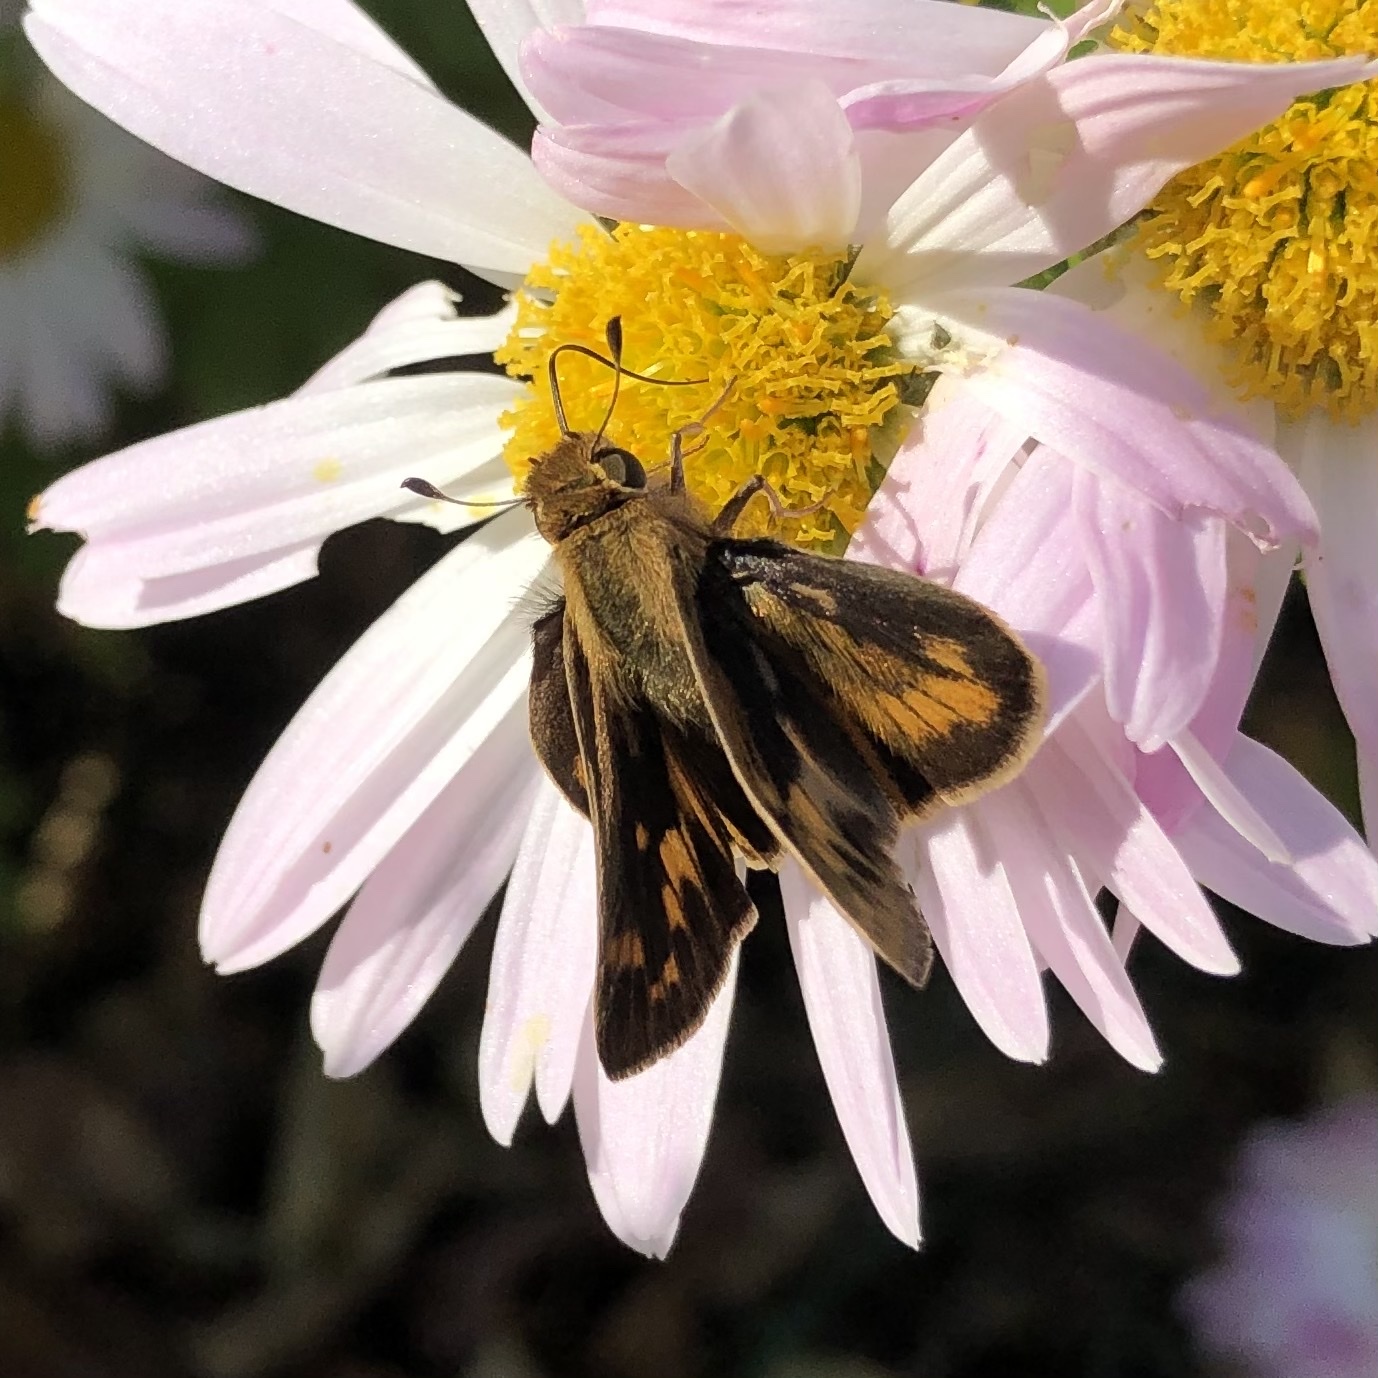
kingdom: Animalia
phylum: Arthropoda
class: Insecta
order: Lepidoptera
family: Hesperiidae
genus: Hylephila
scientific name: Hylephila phyleus
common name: Fiery skipper
